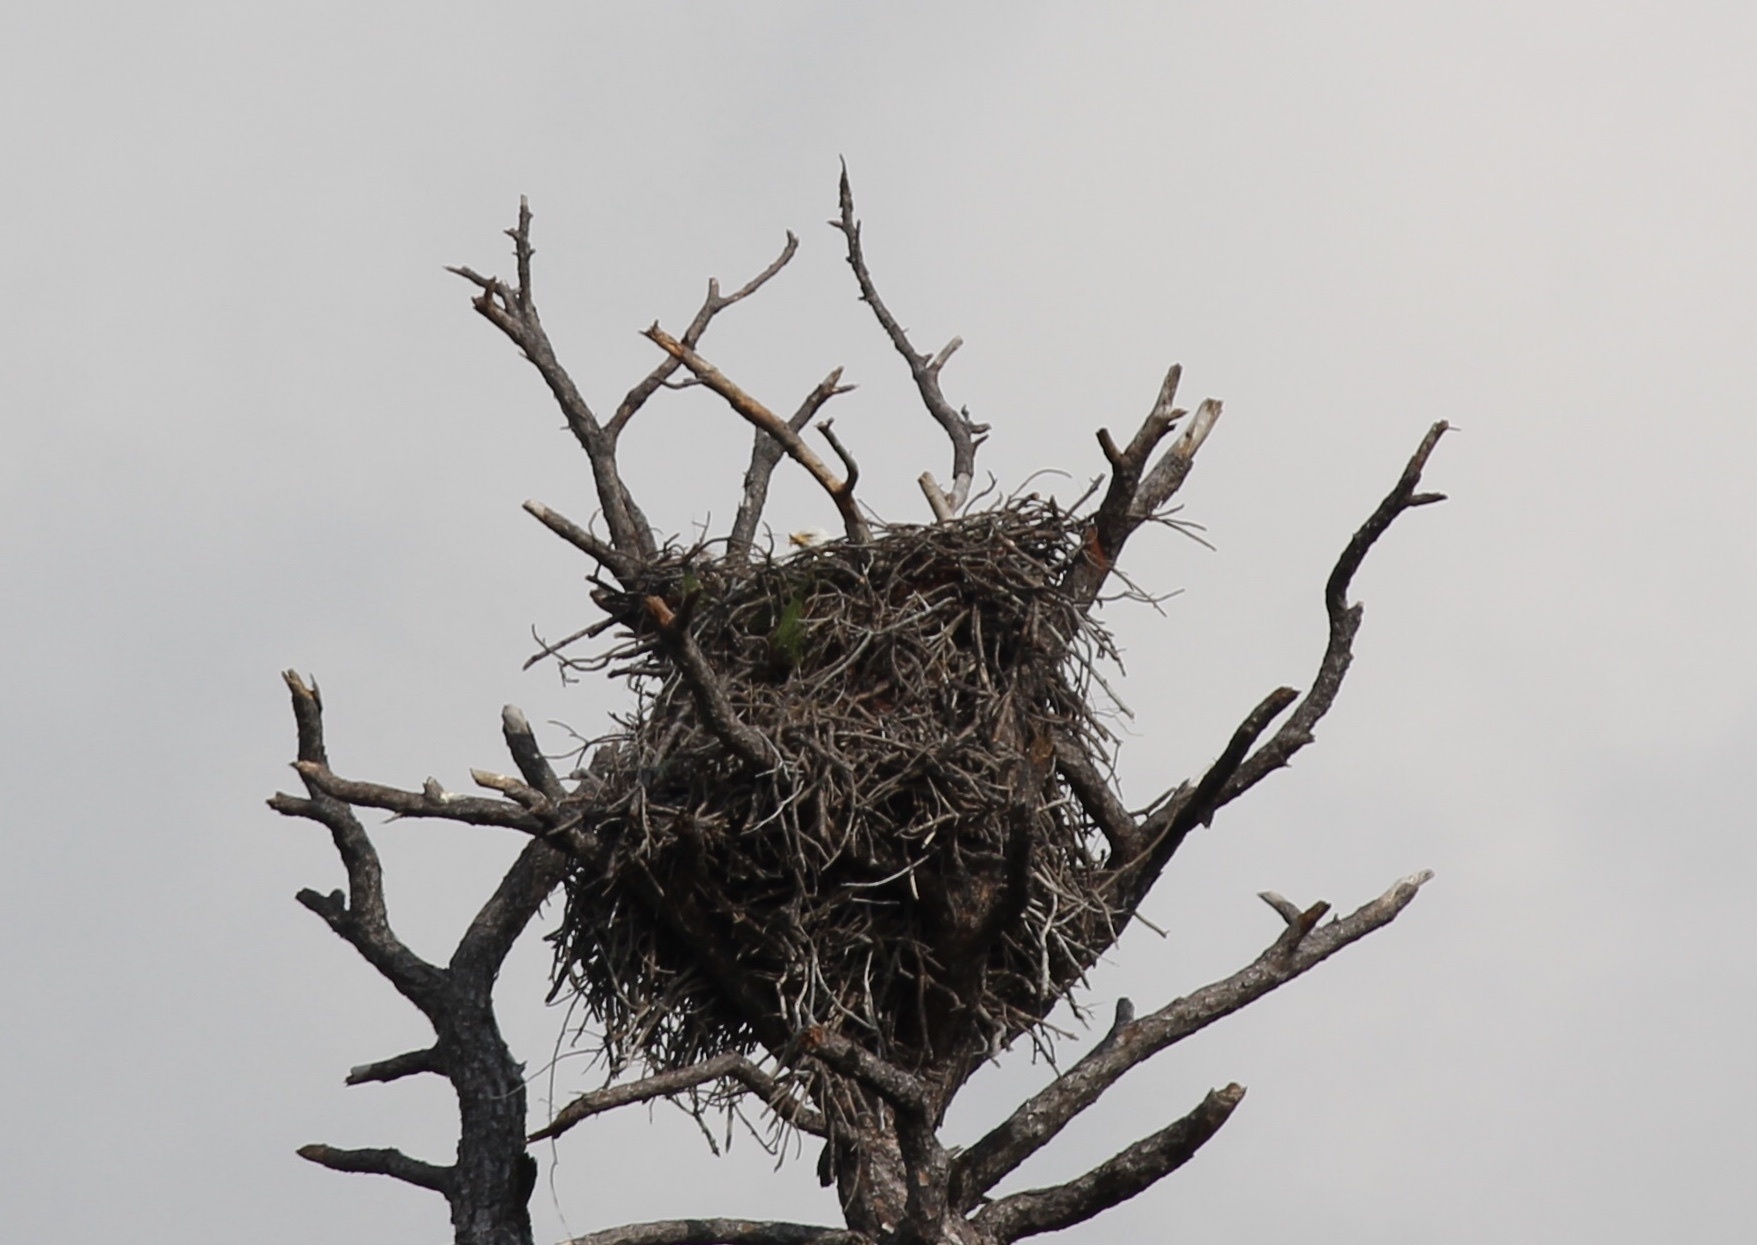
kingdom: Animalia
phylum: Chordata
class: Aves
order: Accipitriformes
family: Accipitridae
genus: Haliaeetus
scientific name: Haliaeetus leucocephalus
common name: Bald eagle
